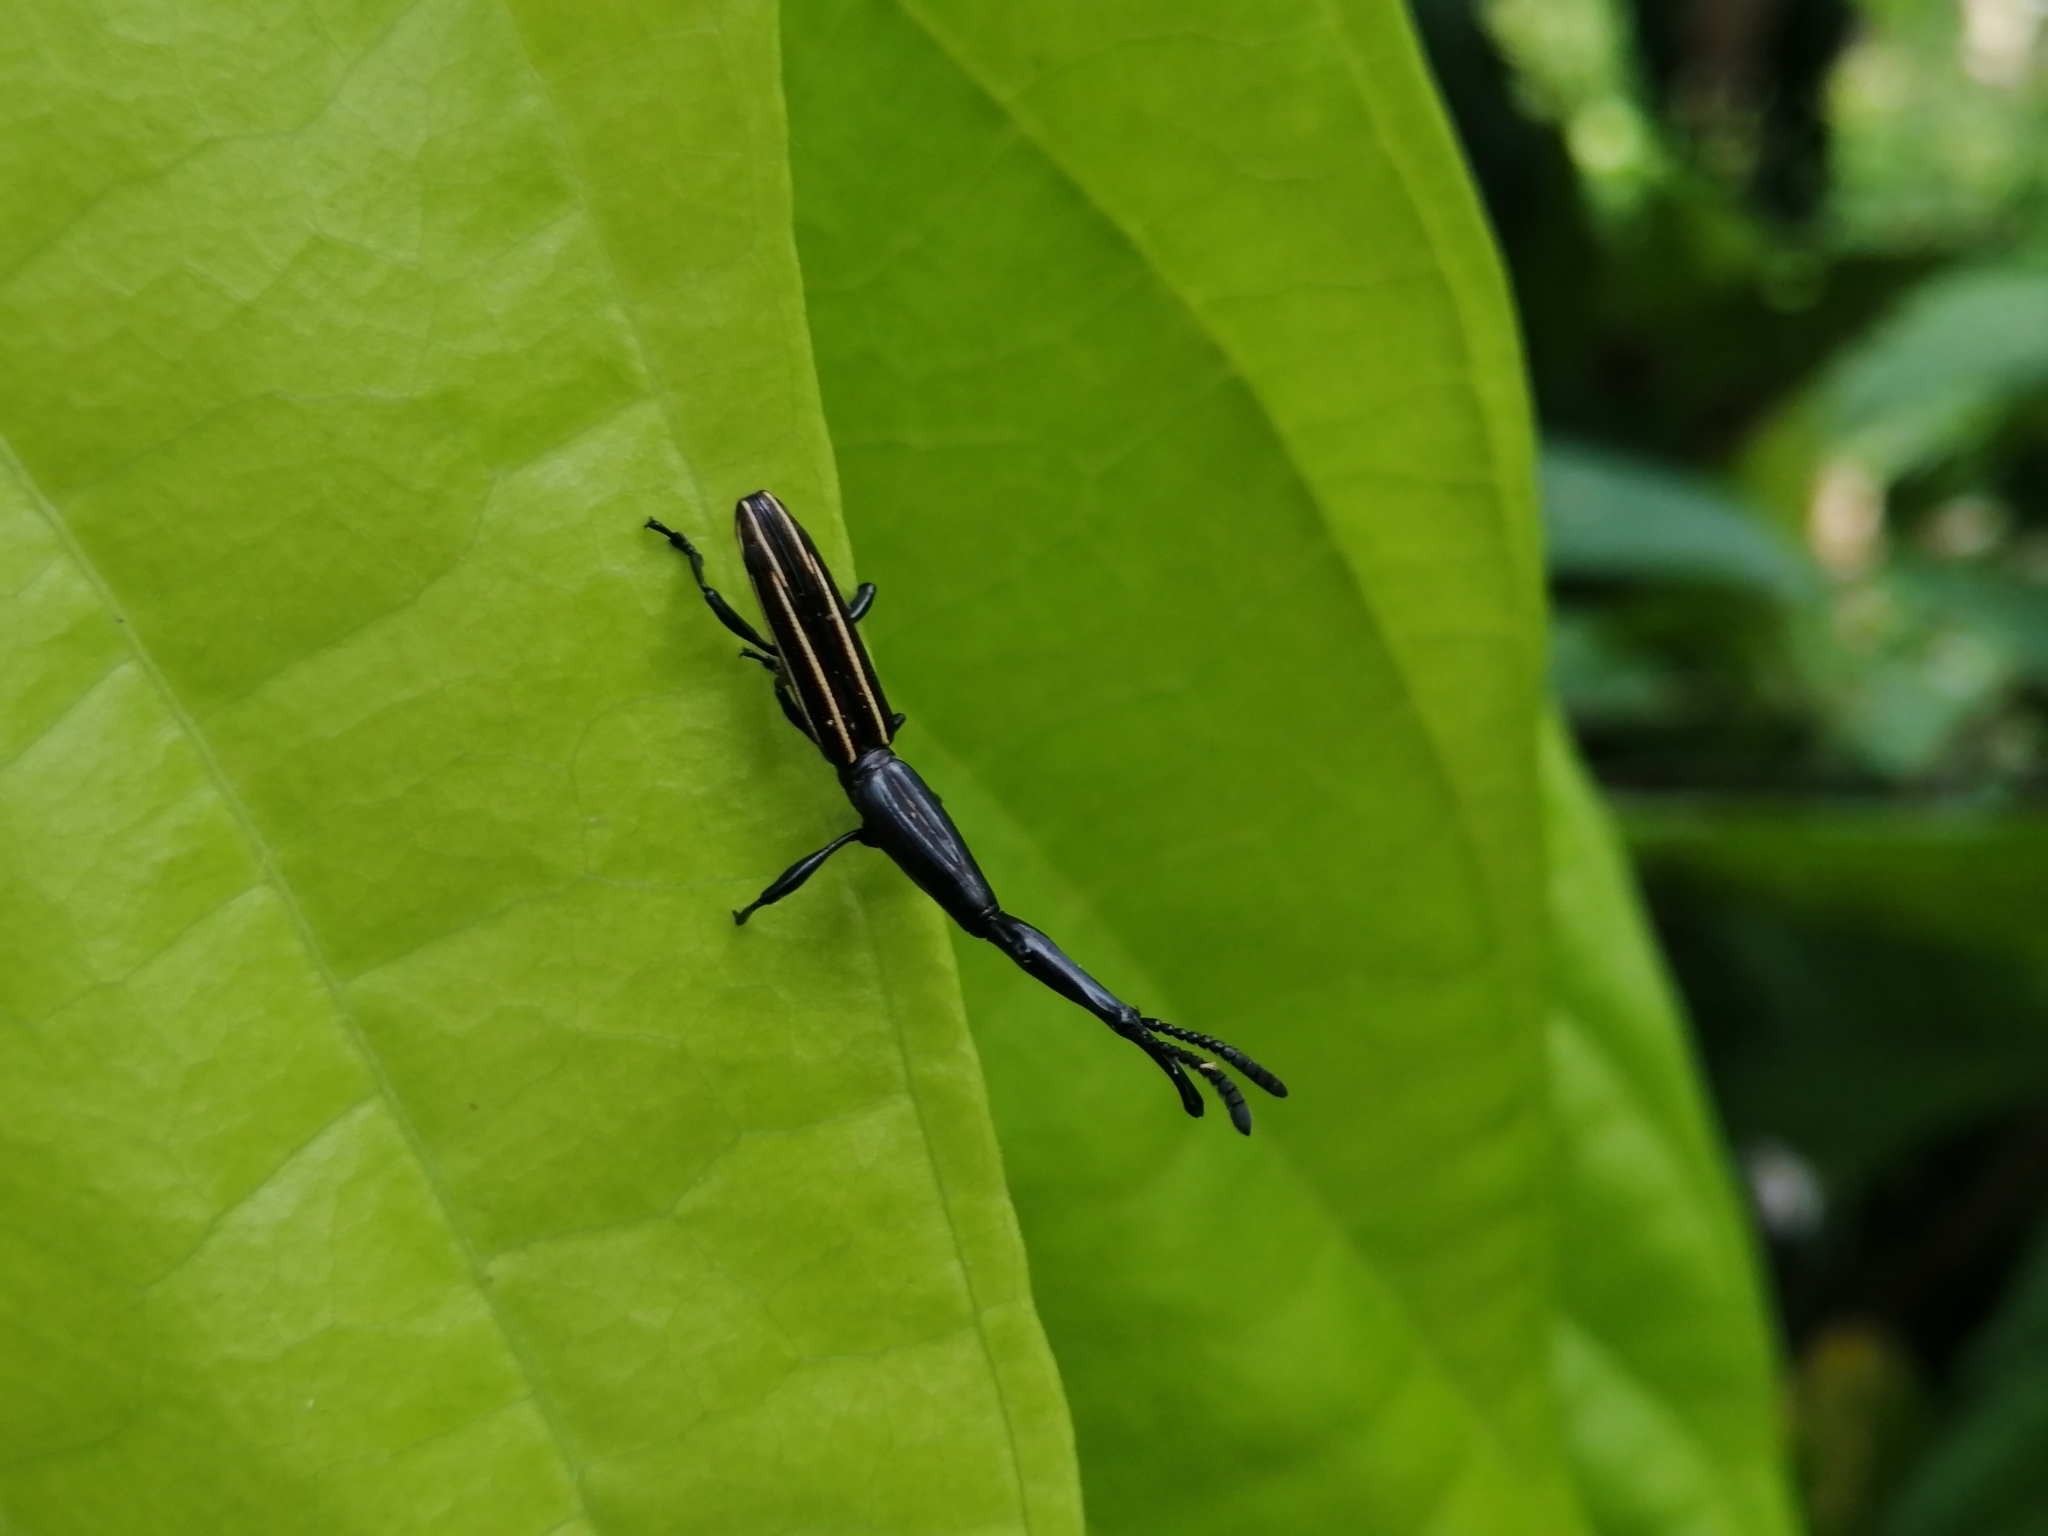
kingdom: Animalia
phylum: Arthropoda
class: Insecta
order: Coleoptera
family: Brentidae
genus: Brentus
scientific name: Brentus mexicanus
